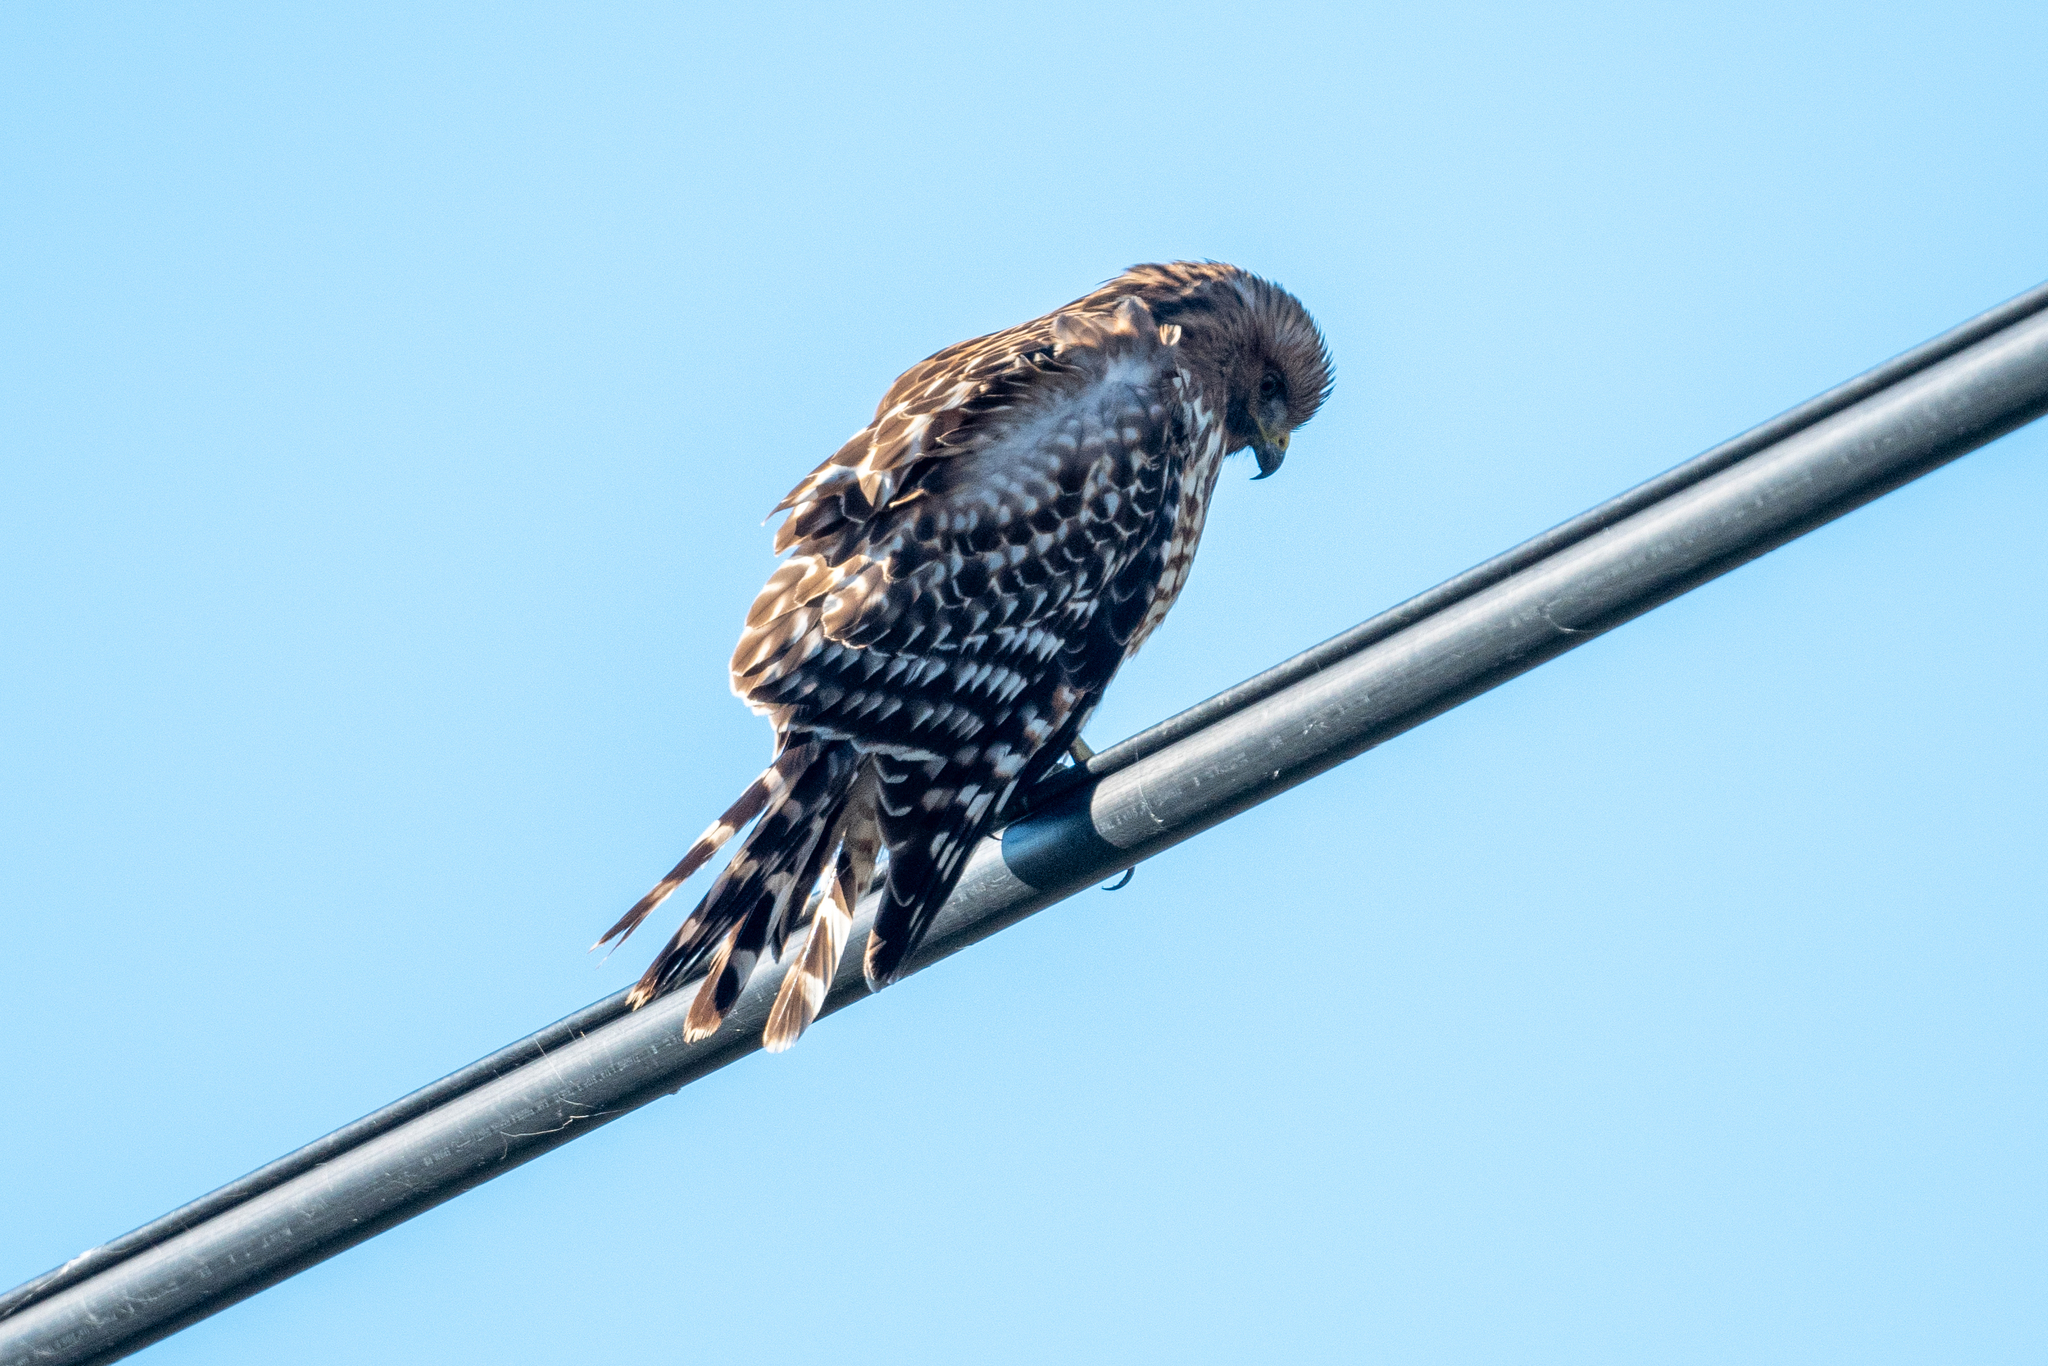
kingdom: Animalia
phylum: Chordata
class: Aves
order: Accipitriformes
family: Accipitridae
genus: Buteo
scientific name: Buteo lineatus
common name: Red-shouldered hawk
